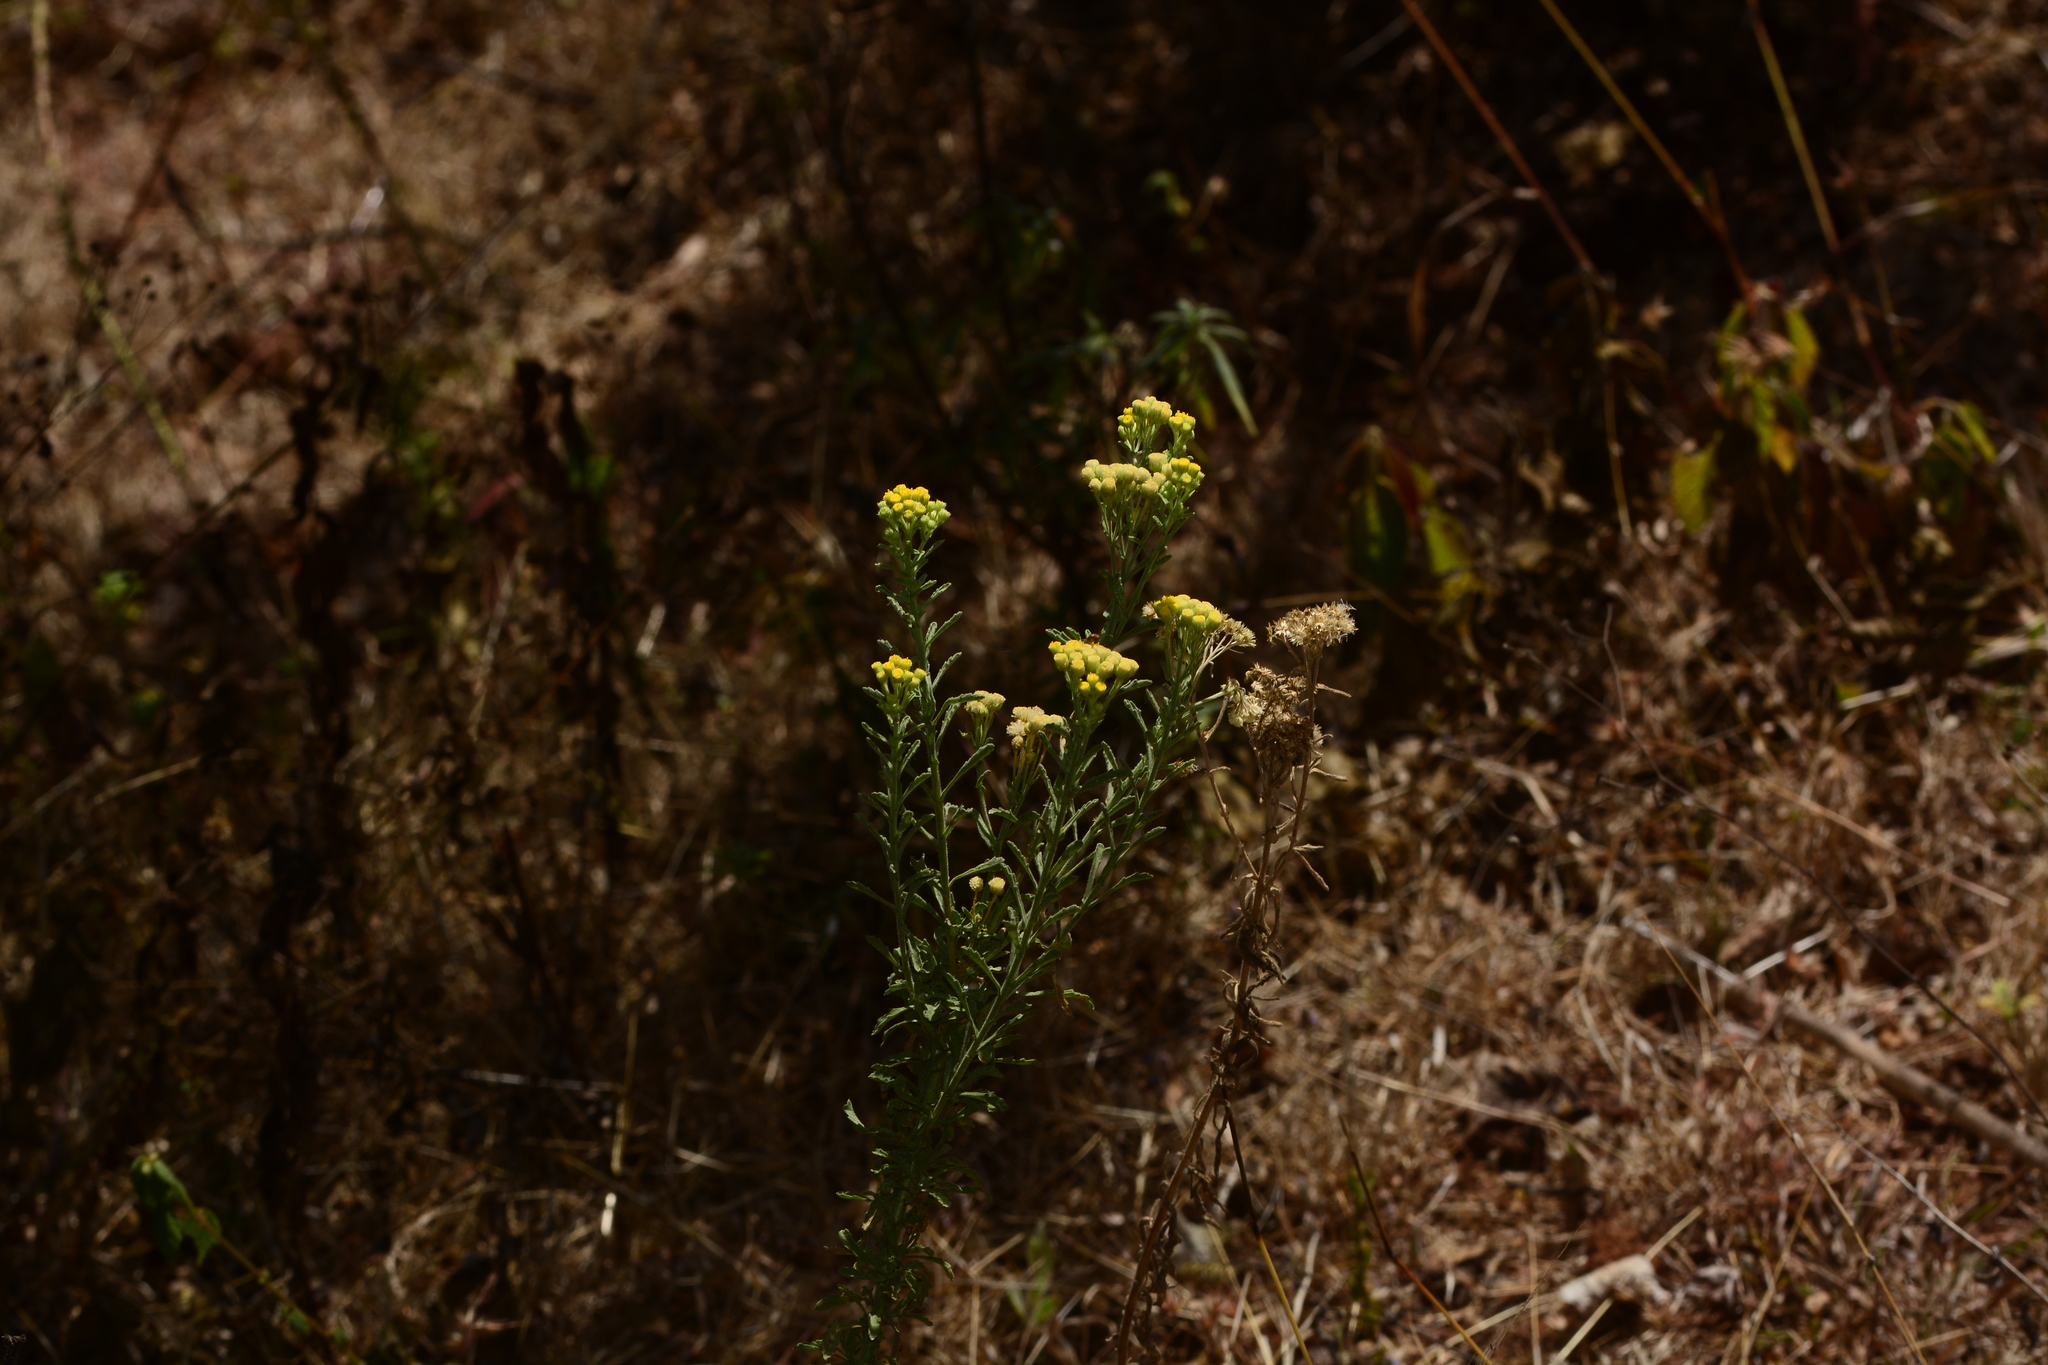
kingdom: Plantae
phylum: Tracheophyta
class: Magnoliopsida
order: Asterales
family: Asteraceae
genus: Nidorella
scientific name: Nidorella triloba
